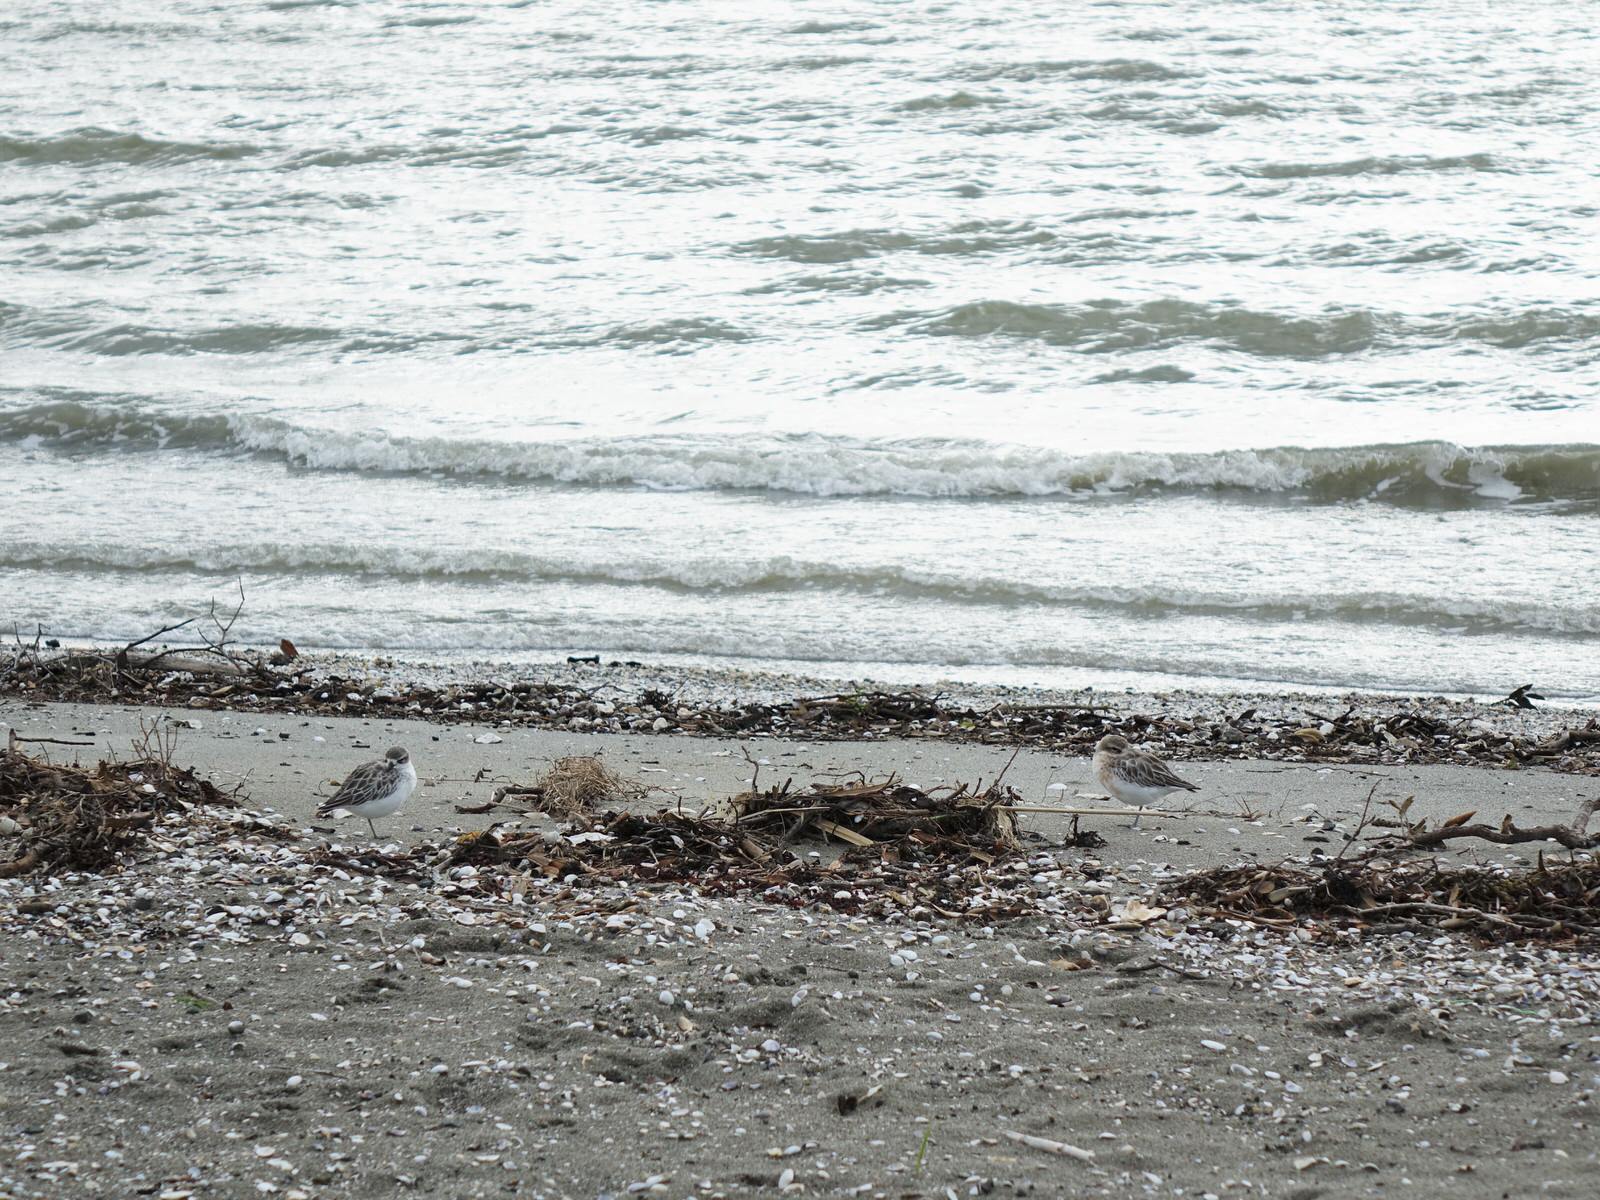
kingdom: Animalia
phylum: Chordata
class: Aves
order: Charadriiformes
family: Charadriidae
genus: Anarhynchus
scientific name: Anarhynchus
